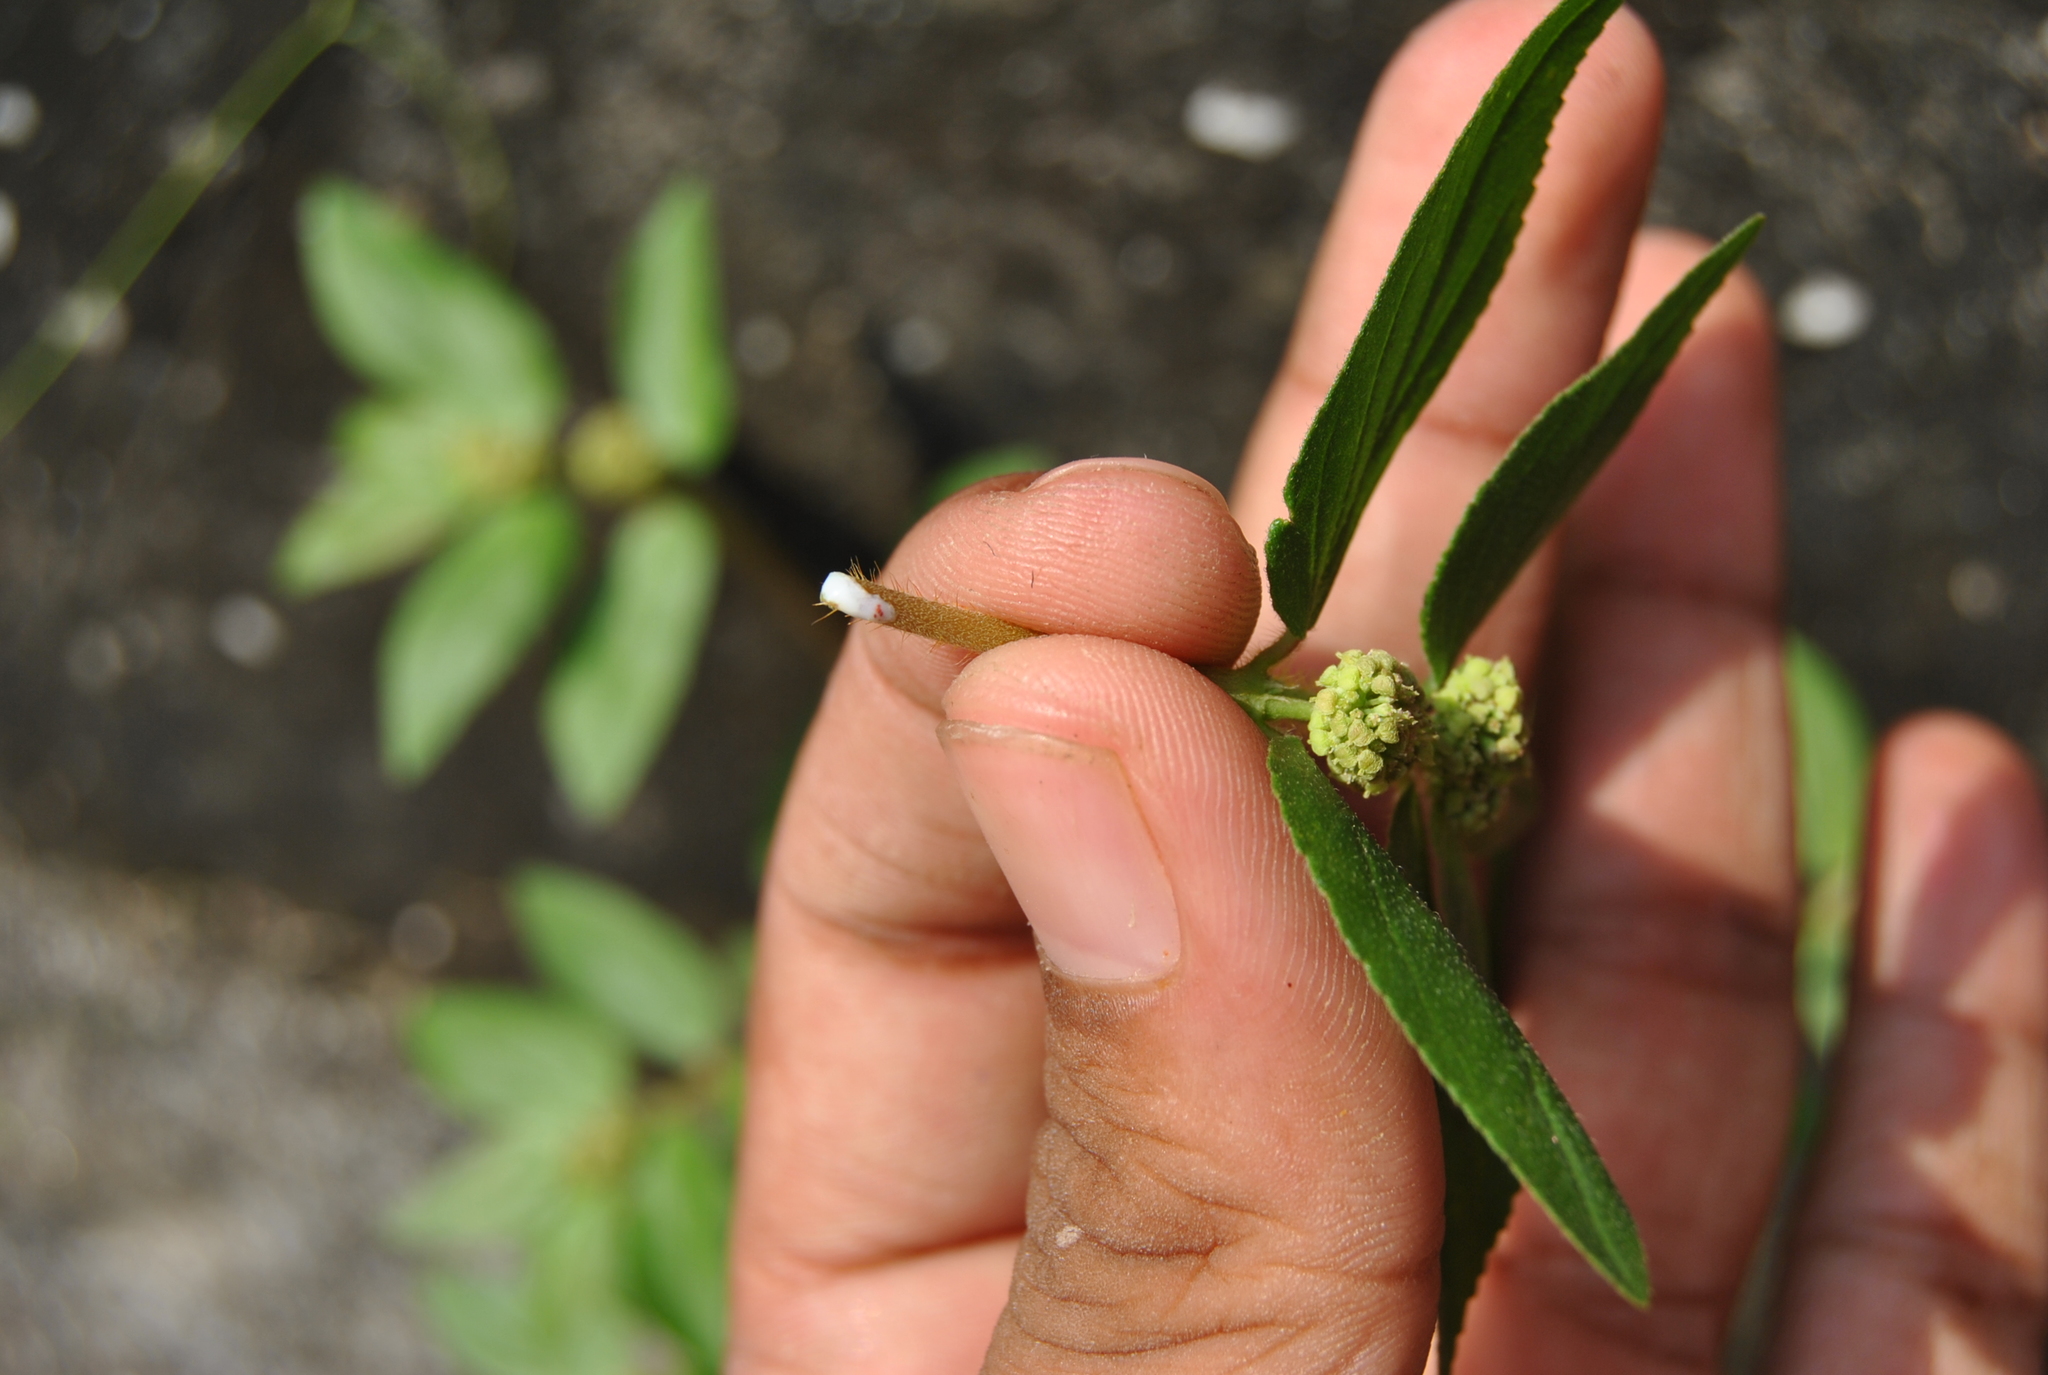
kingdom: Plantae
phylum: Tracheophyta
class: Magnoliopsida
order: Malpighiales
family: Euphorbiaceae
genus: Euphorbia
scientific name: Euphorbia hirta
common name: Pillpod sandmat
